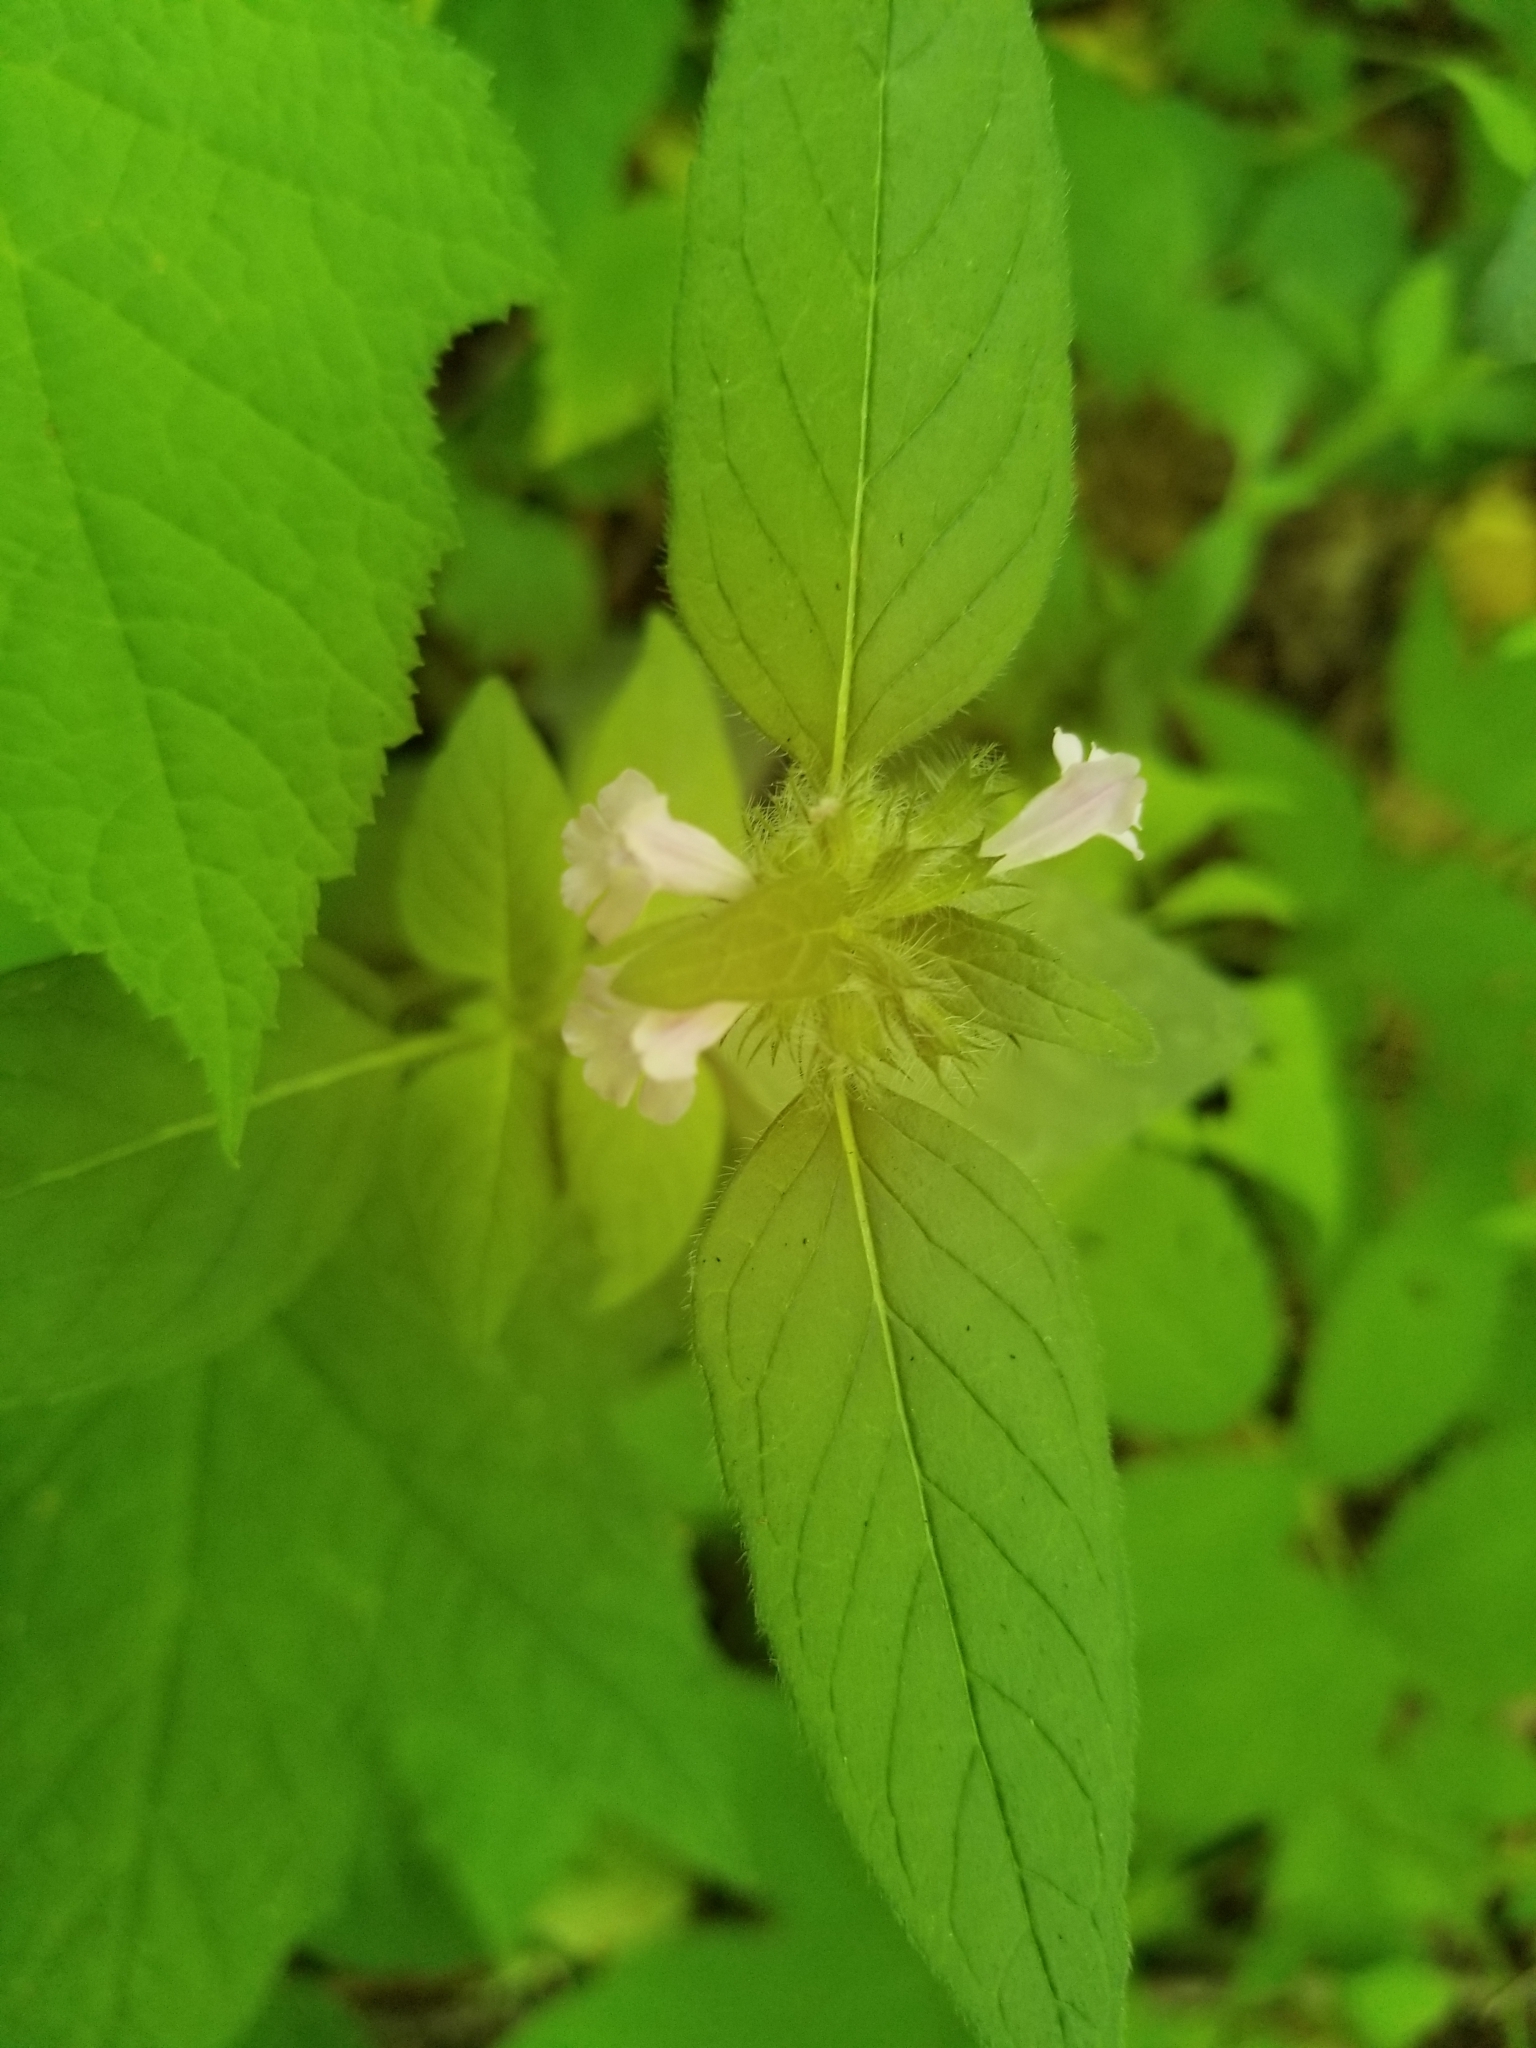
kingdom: Plantae
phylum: Tracheophyta
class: Magnoliopsida
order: Lamiales
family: Lamiaceae
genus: Clinopodium
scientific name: Clinopodium vulgare
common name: Wild basil
